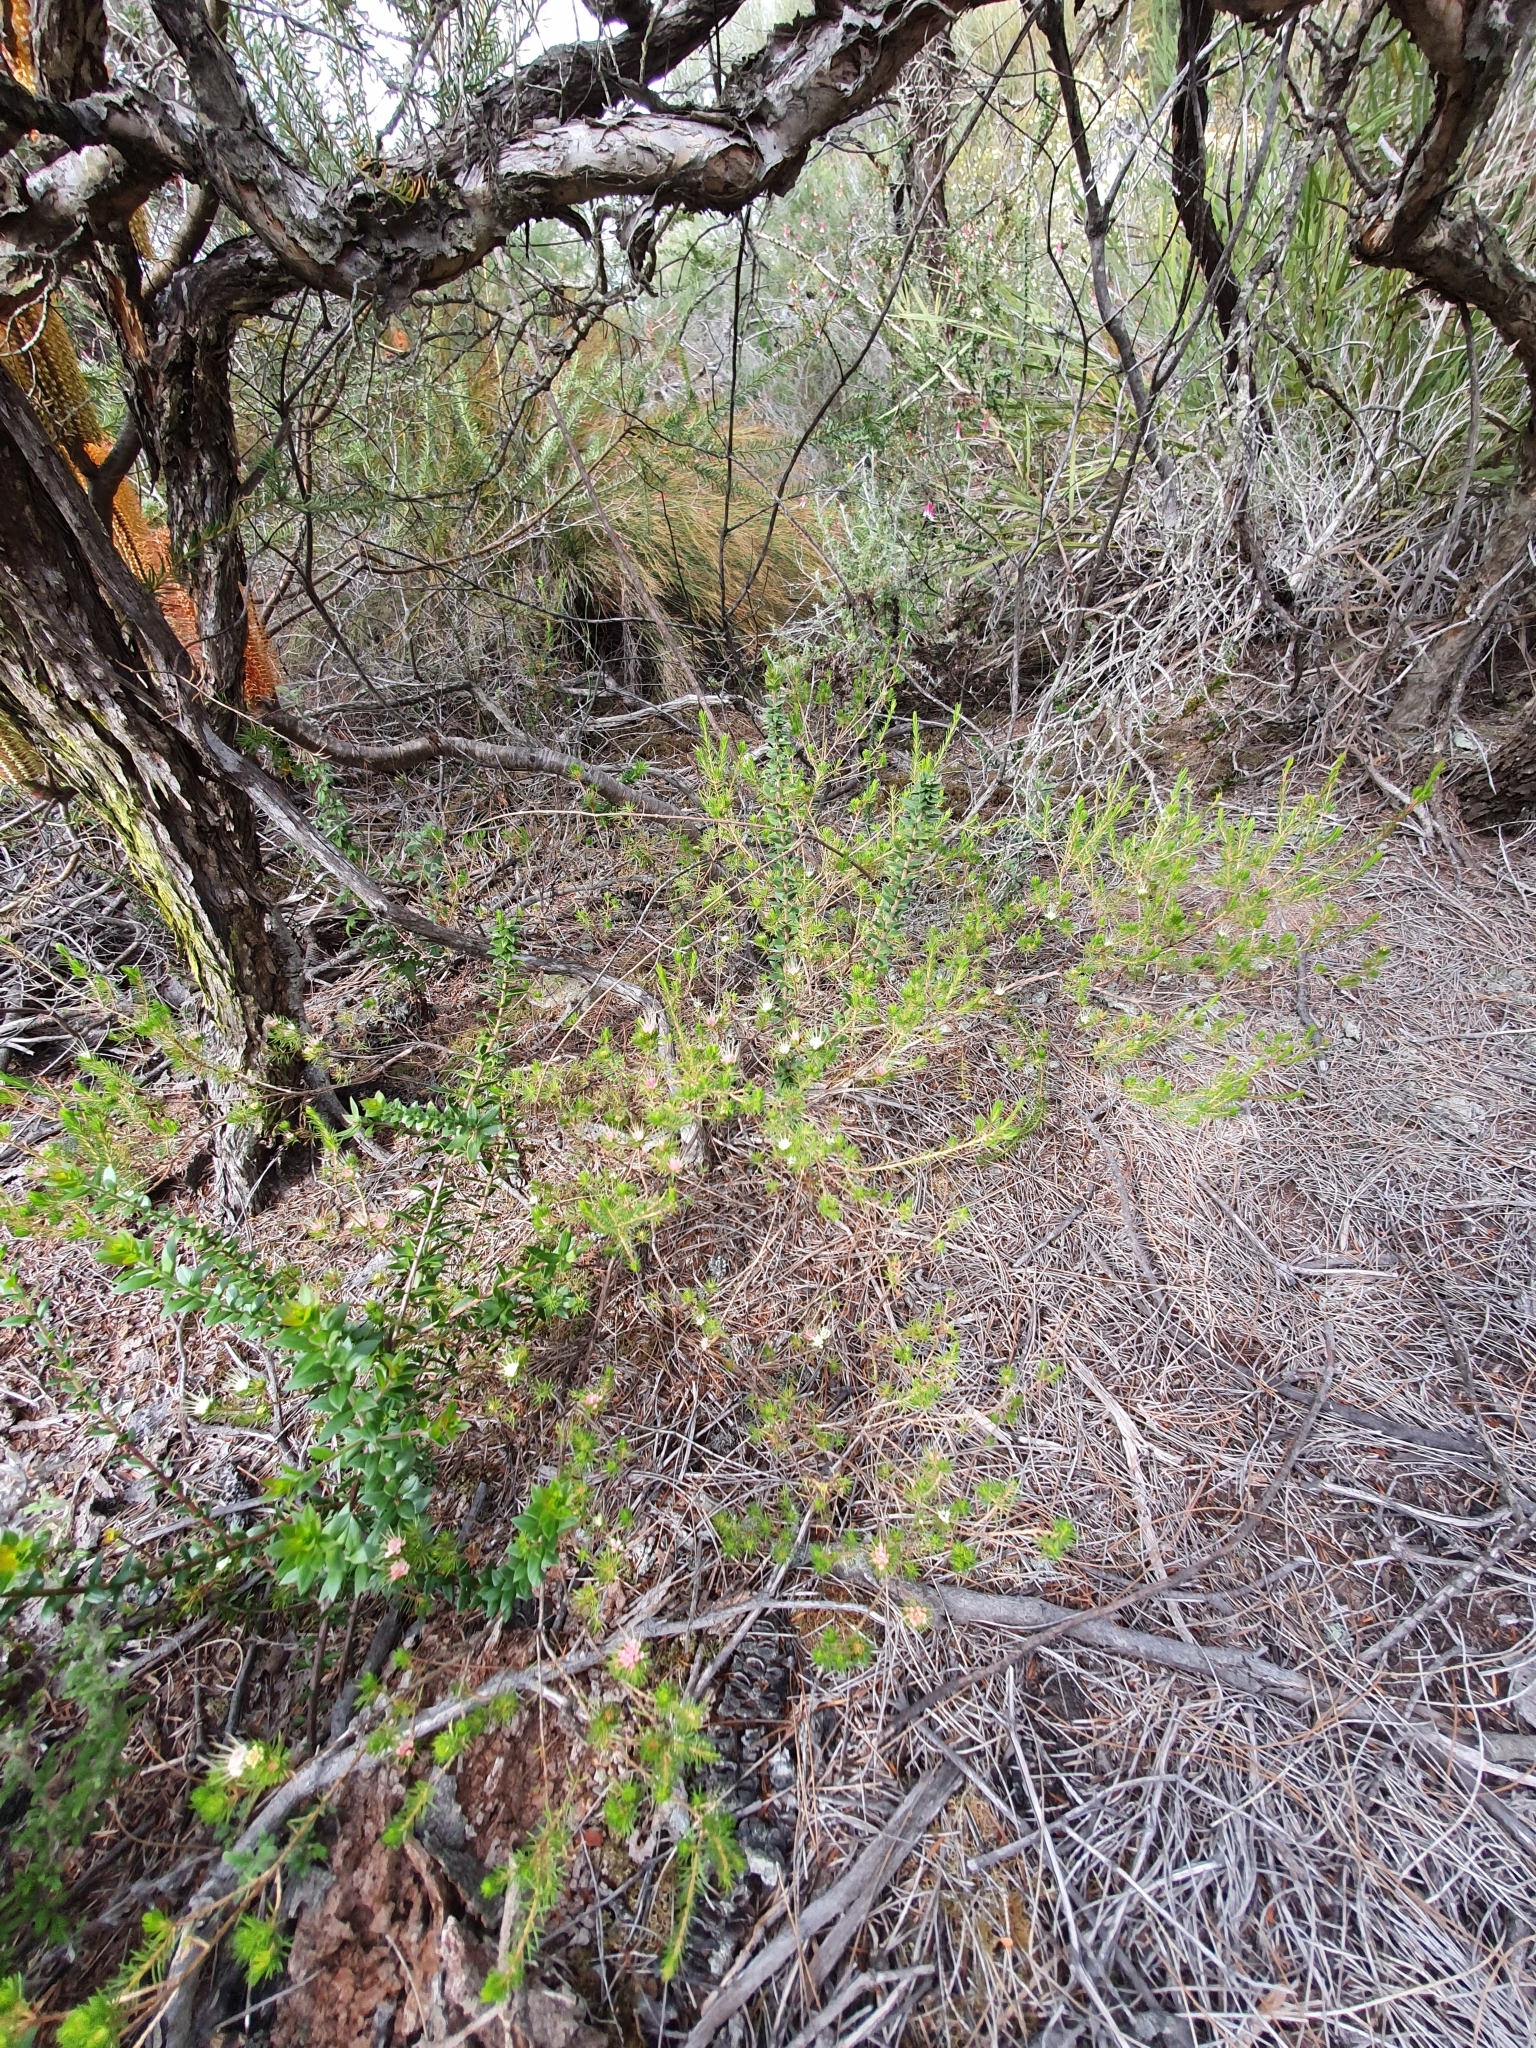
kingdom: Plantae
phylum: Tracheophyta
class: Magnoliopsida
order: Myrtales
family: Myrtaceae
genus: Darwinia
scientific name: Darwinia fascicularis
